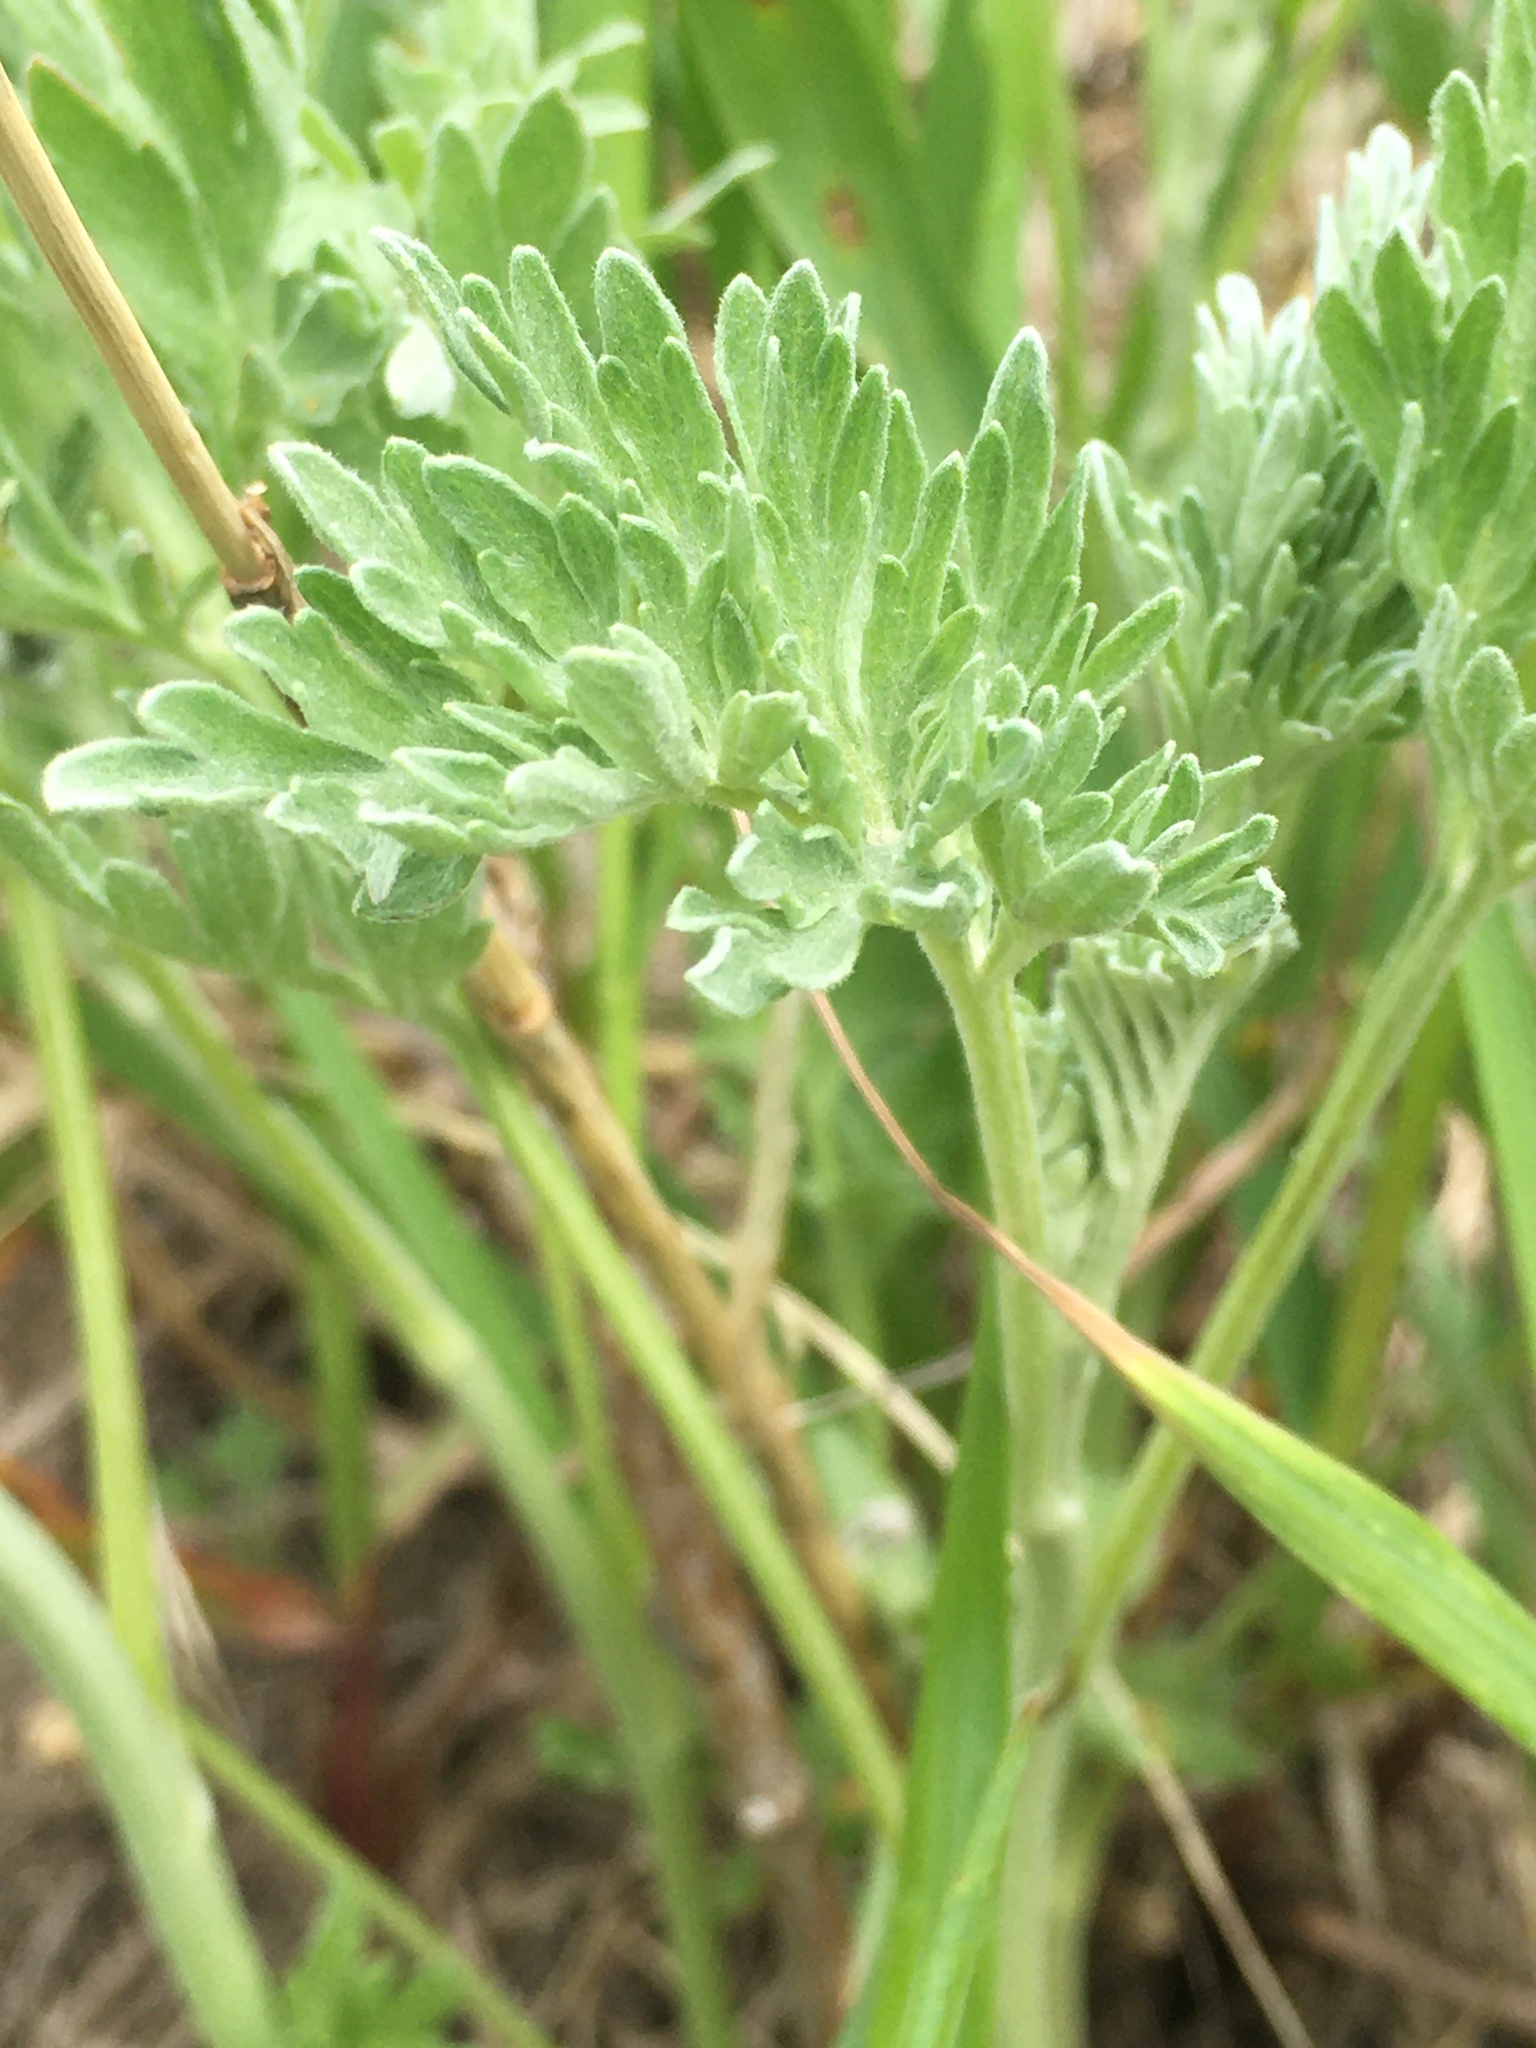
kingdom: Plantae
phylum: Tracheophyta
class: Magnoliopsida
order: Asterales
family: Asteraceae
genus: Artemisia
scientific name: Artemisia absinthium
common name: Wormwood
